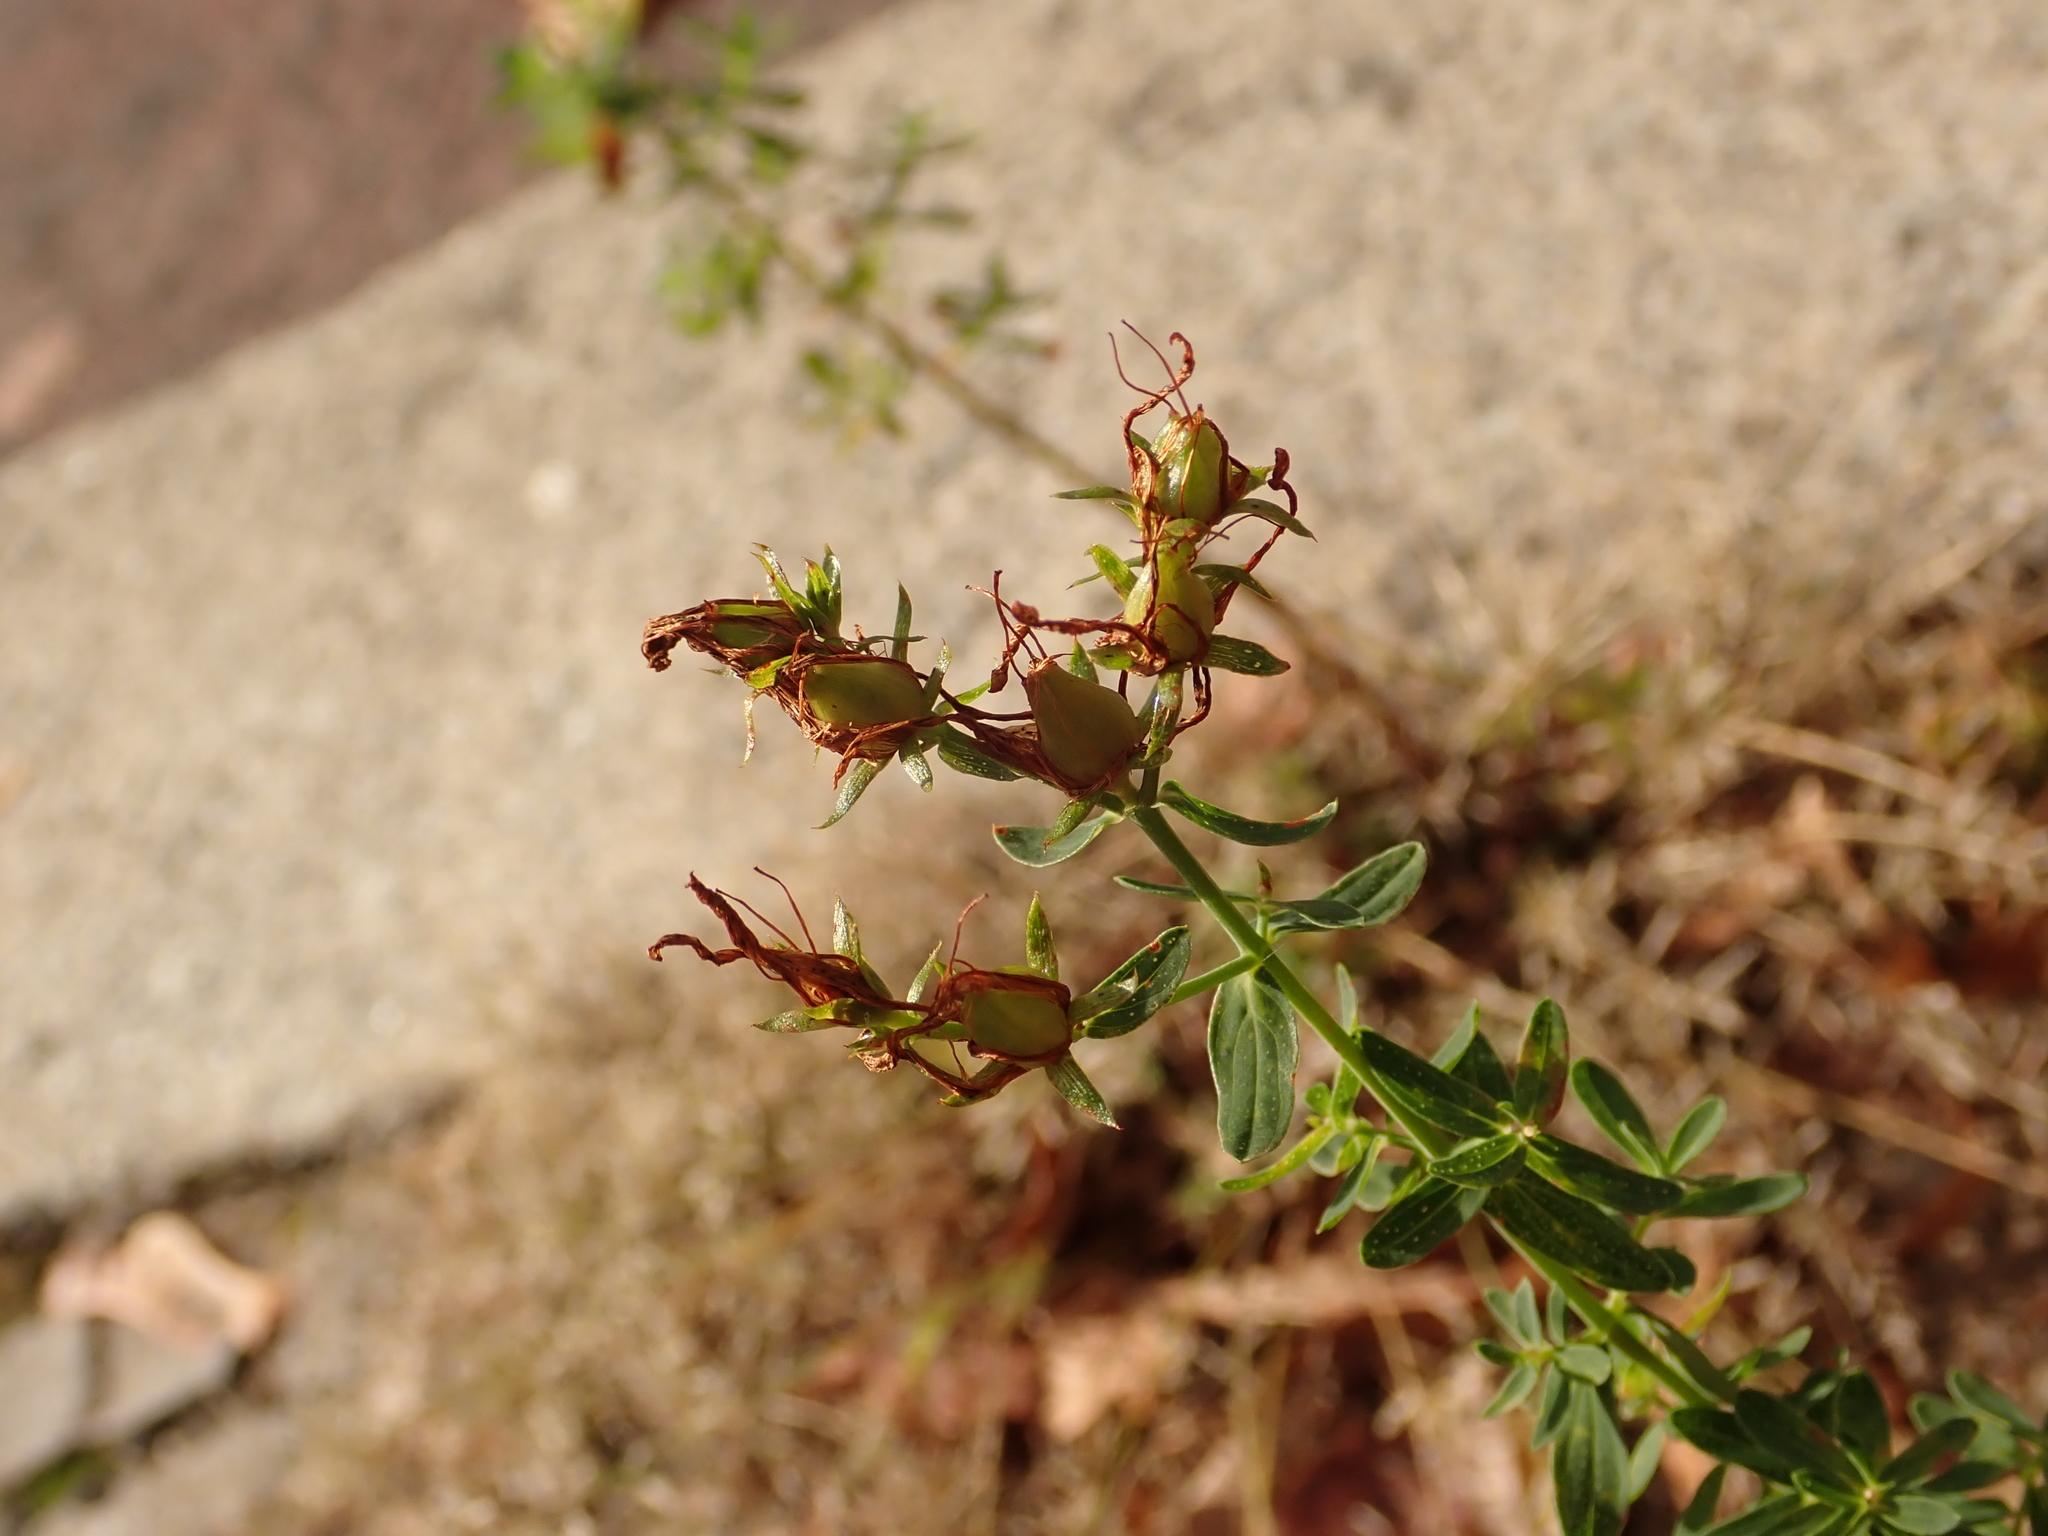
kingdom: Plantae
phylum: Tracheophyta
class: Magnoliopsida
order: Malpighiales
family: Hypericaceae
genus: Hypericum
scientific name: Hypericum perforatum
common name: Common st. johnswort
